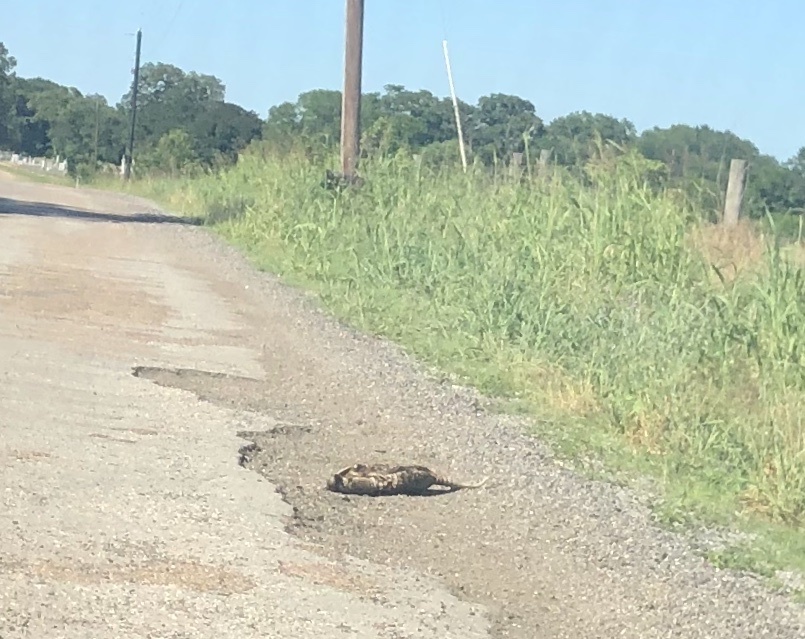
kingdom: Animalia
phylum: Chordata
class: Mammalia
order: Cingulata
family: Dasypodidae
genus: Dasypus
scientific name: Dasypus novemcinctus
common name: Nine-banded armadillo
